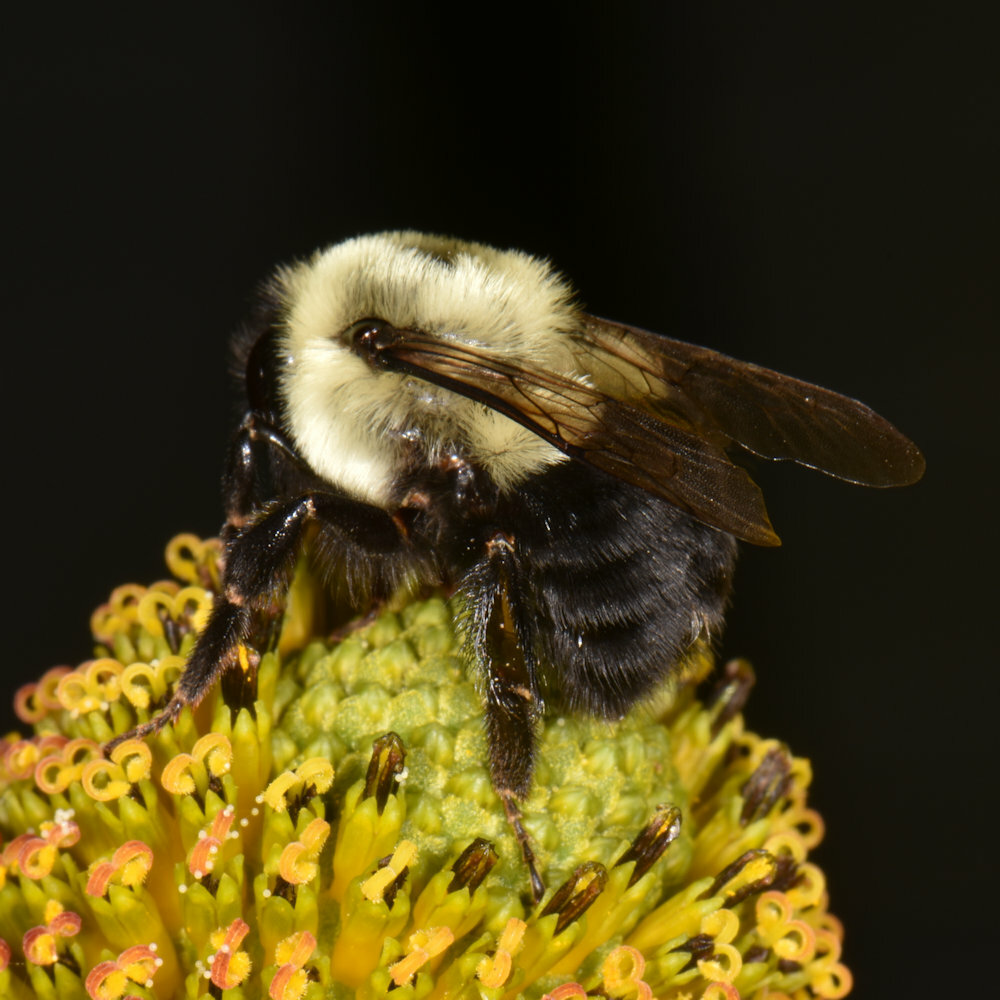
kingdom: Animalia
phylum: Arthropoda
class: Insecta
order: Hymenoptera
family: Apidae
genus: Bombus
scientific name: Bombus impatiens
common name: Common eastern bumble bee
